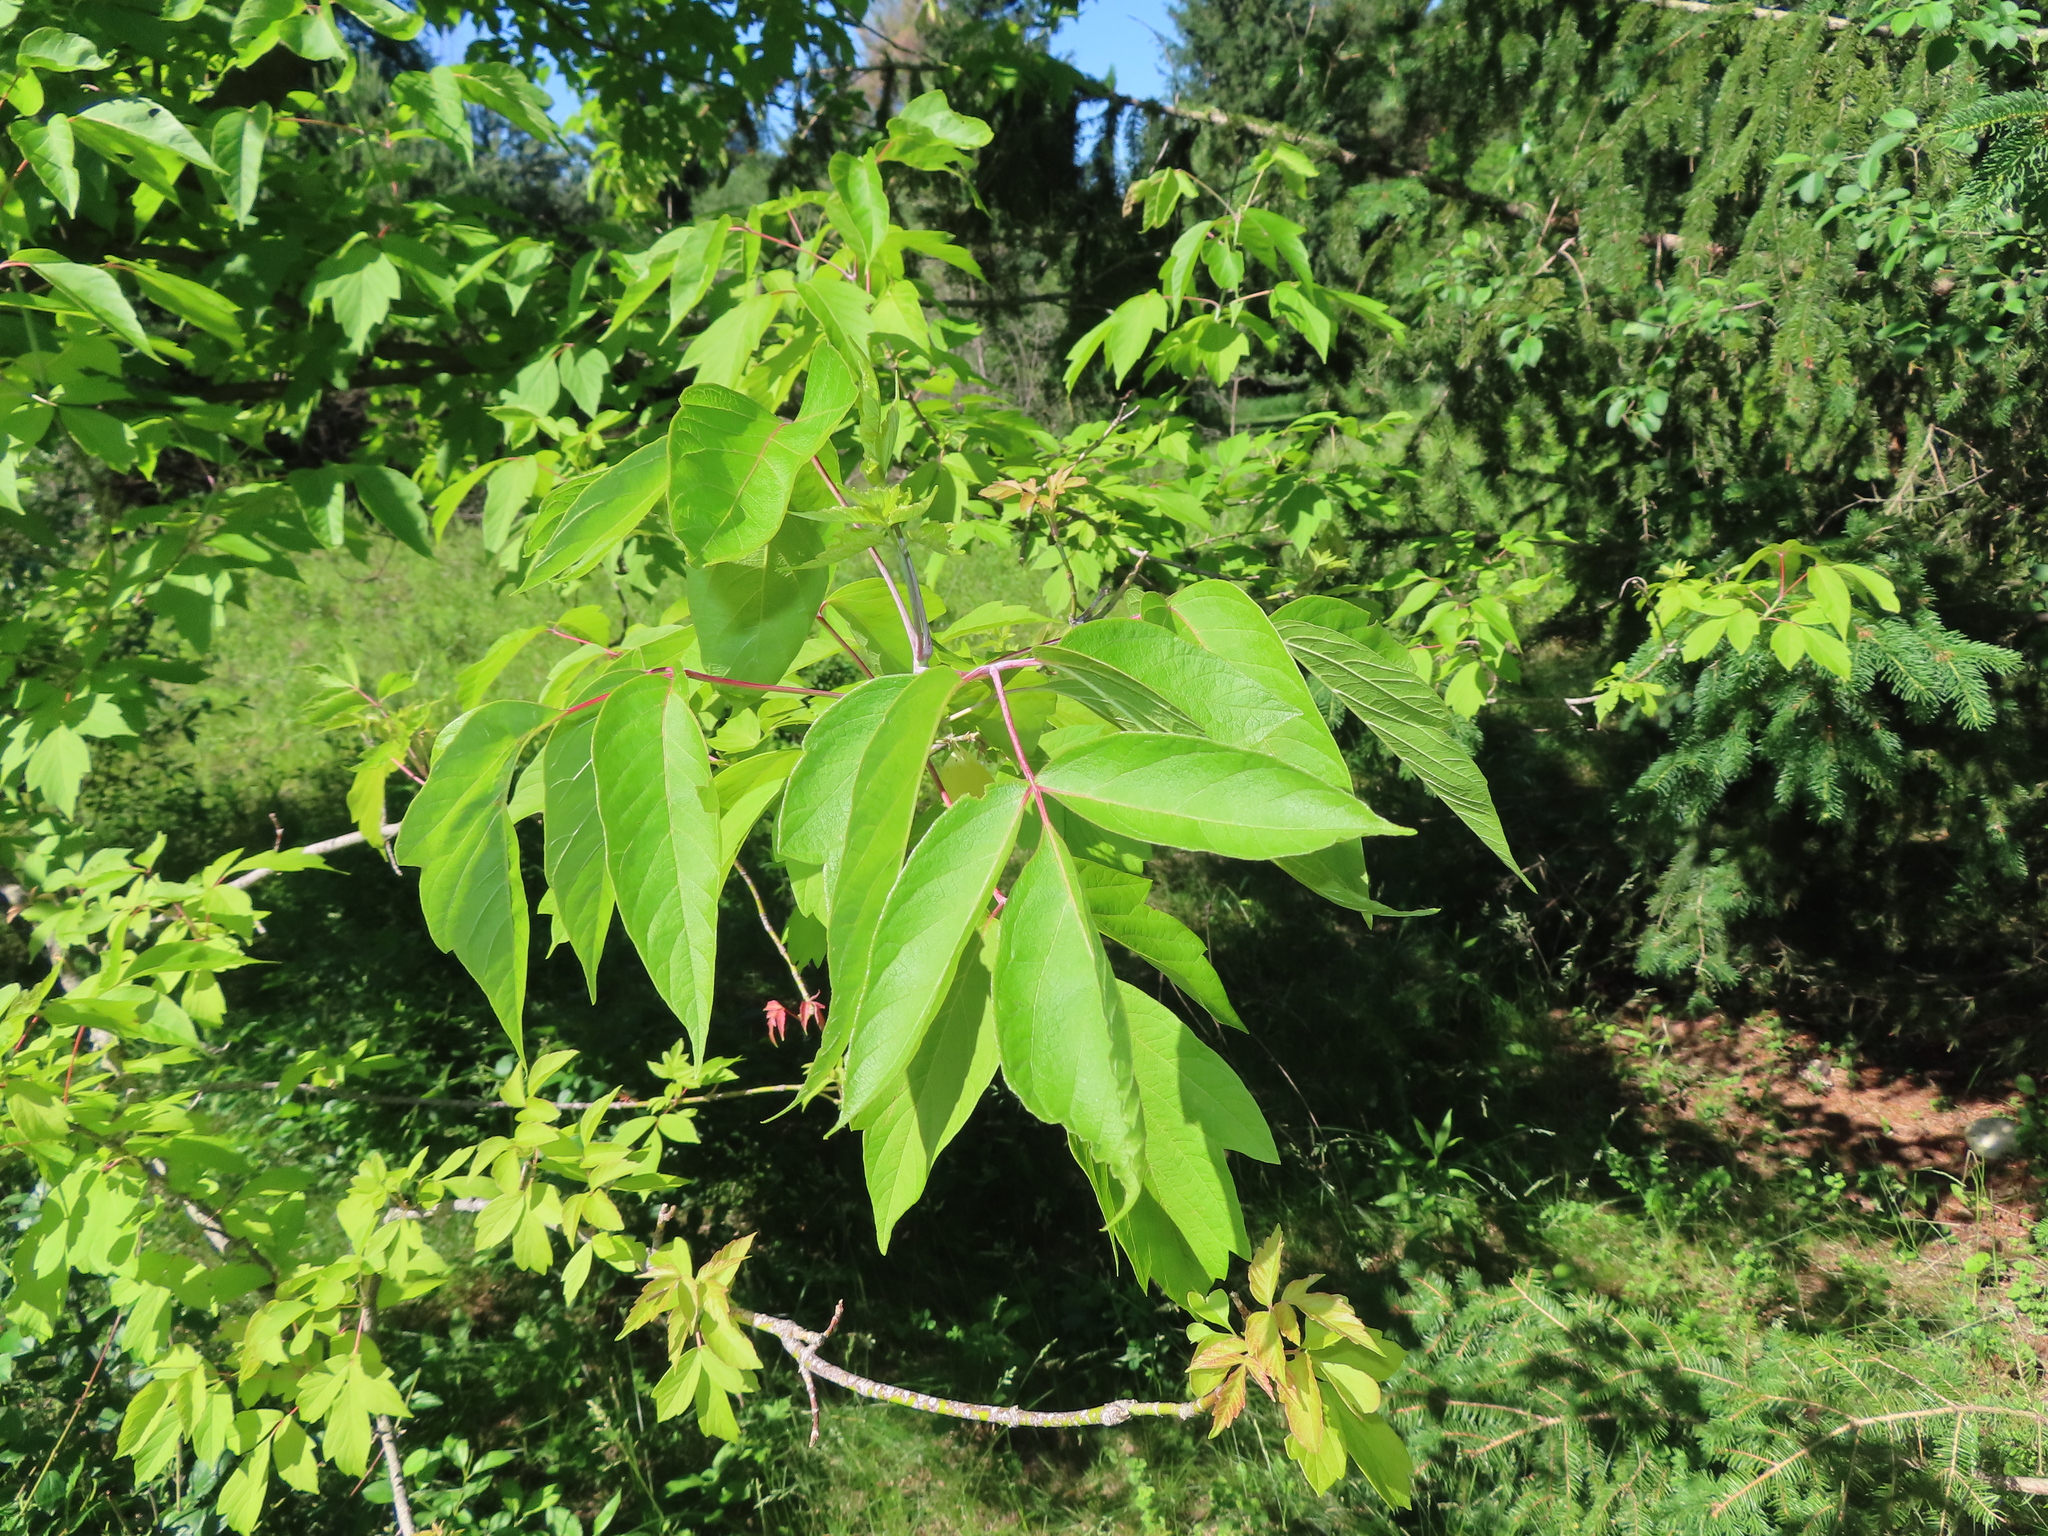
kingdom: Plantae
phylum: Tracheophyta
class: Magnoliopsida
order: Sapindales
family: Sapindaceae
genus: Acer
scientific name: Acer negundo
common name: Ashleaf maple
